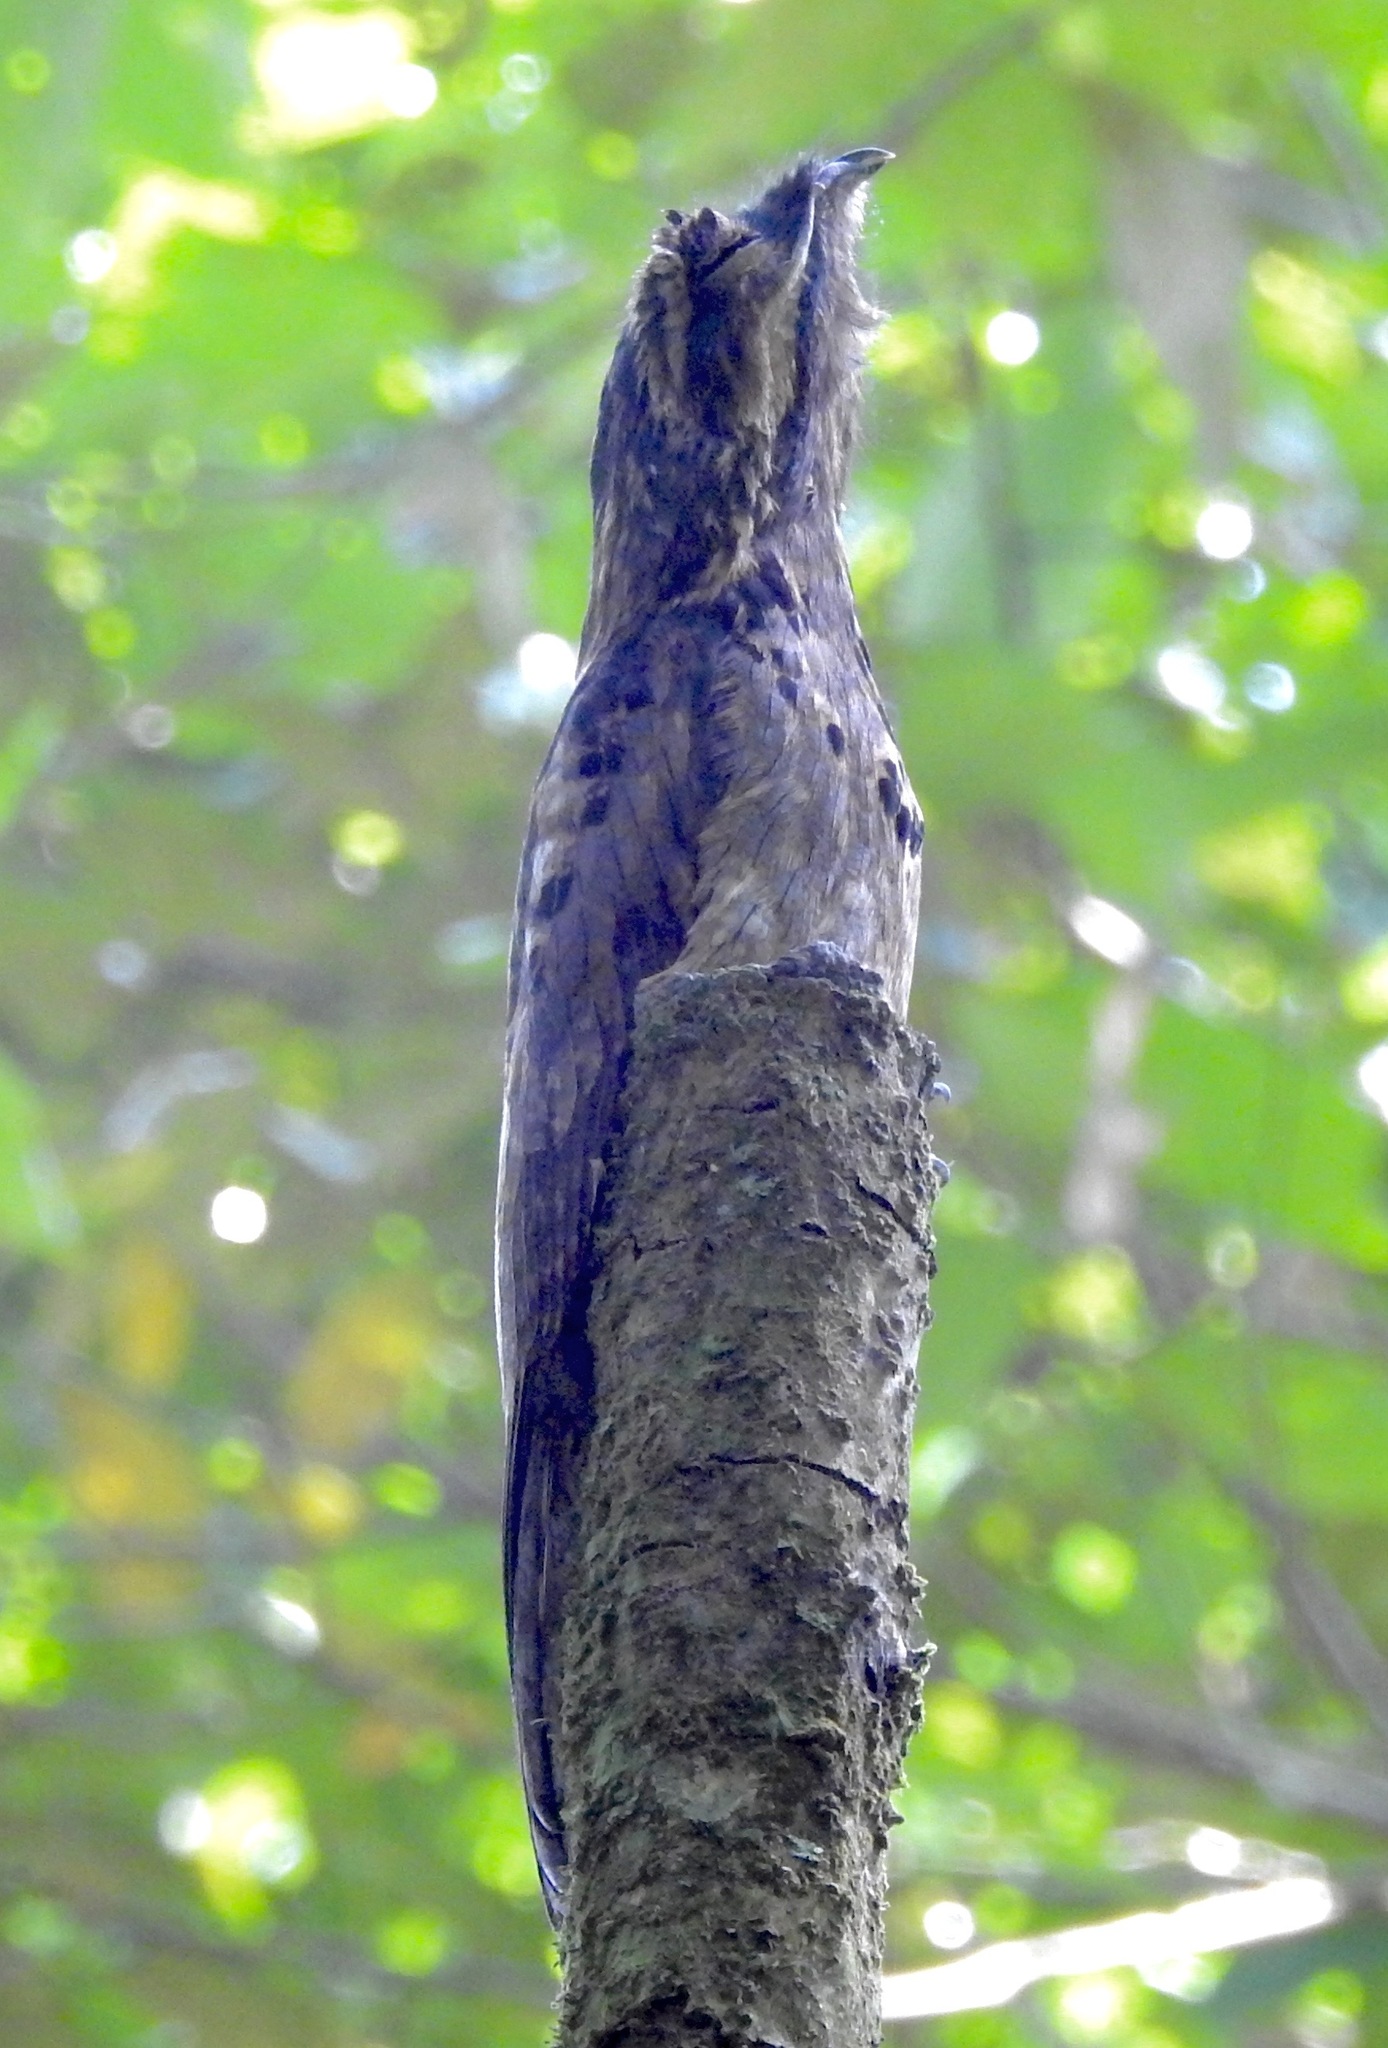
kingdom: Animalia
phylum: Chordata
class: Aves
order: Nyctibiiformes
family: Nyctibiidae
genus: Nyctibius
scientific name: Nyctibius griseus
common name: Common potoo
